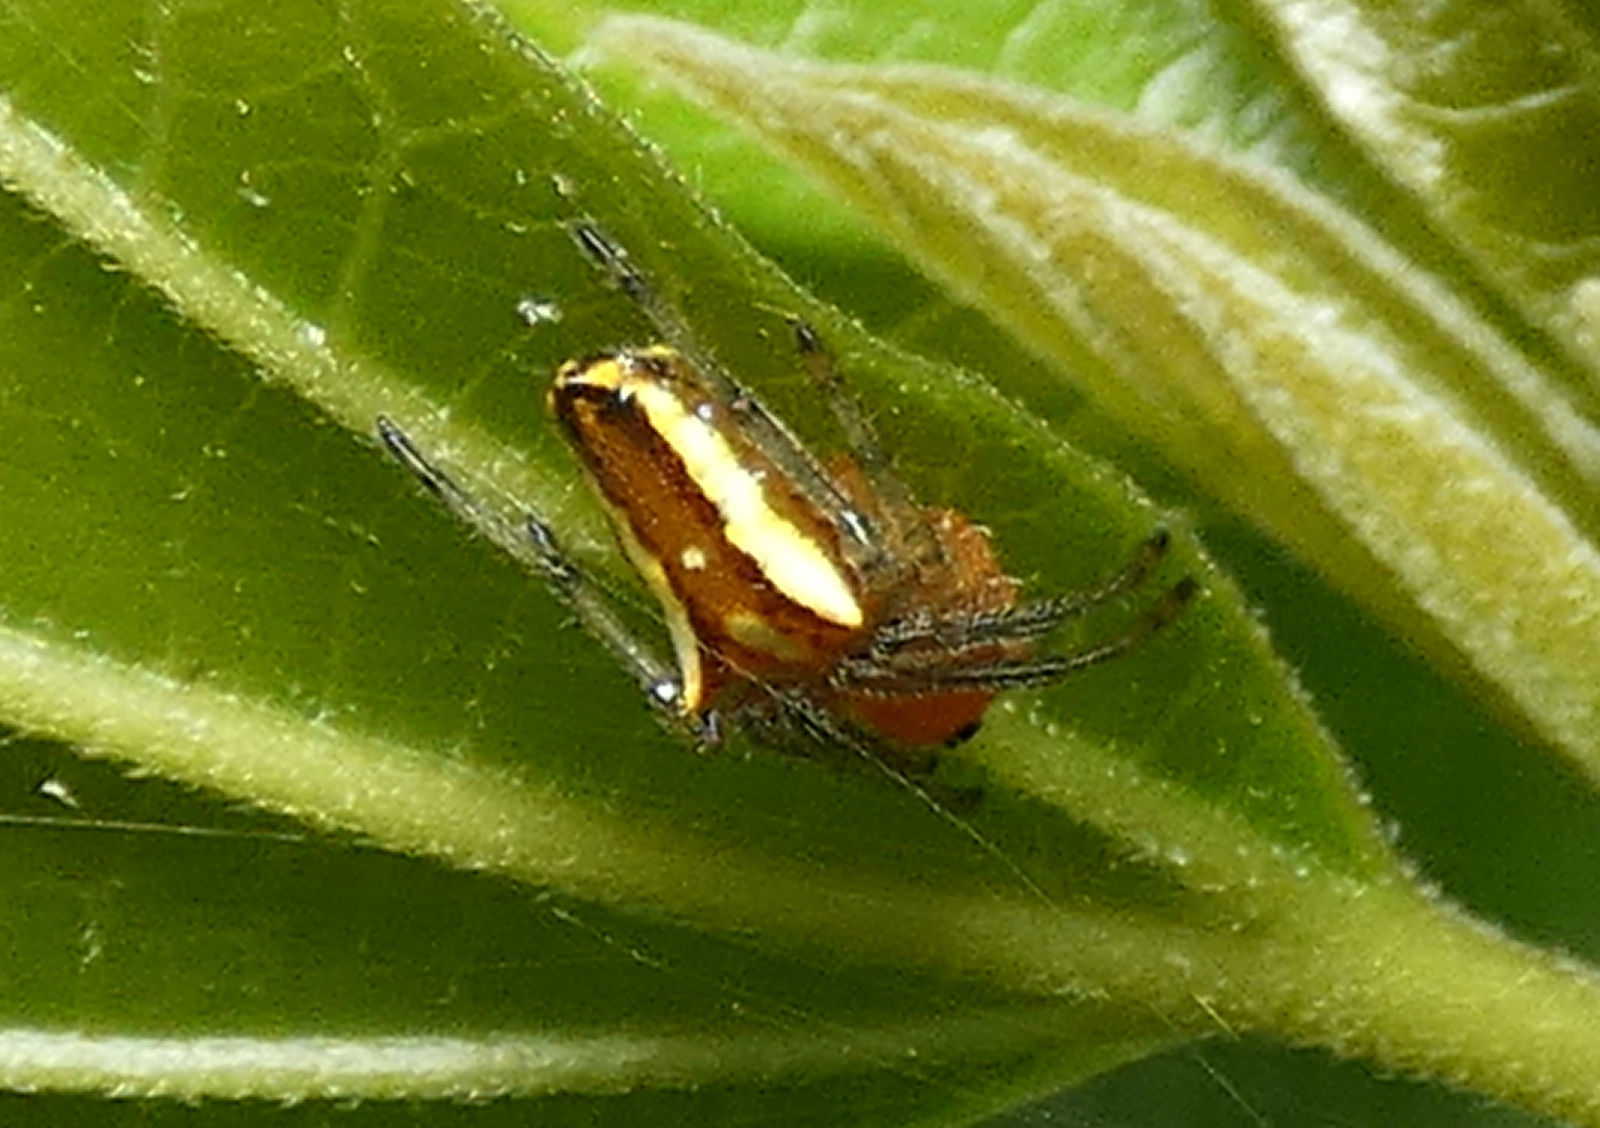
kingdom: Animalia
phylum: Arthropoda
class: Arachnida
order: Araneae
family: Araneidae
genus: Alpaida
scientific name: Alpaida bicornuta
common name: Orb weavers
